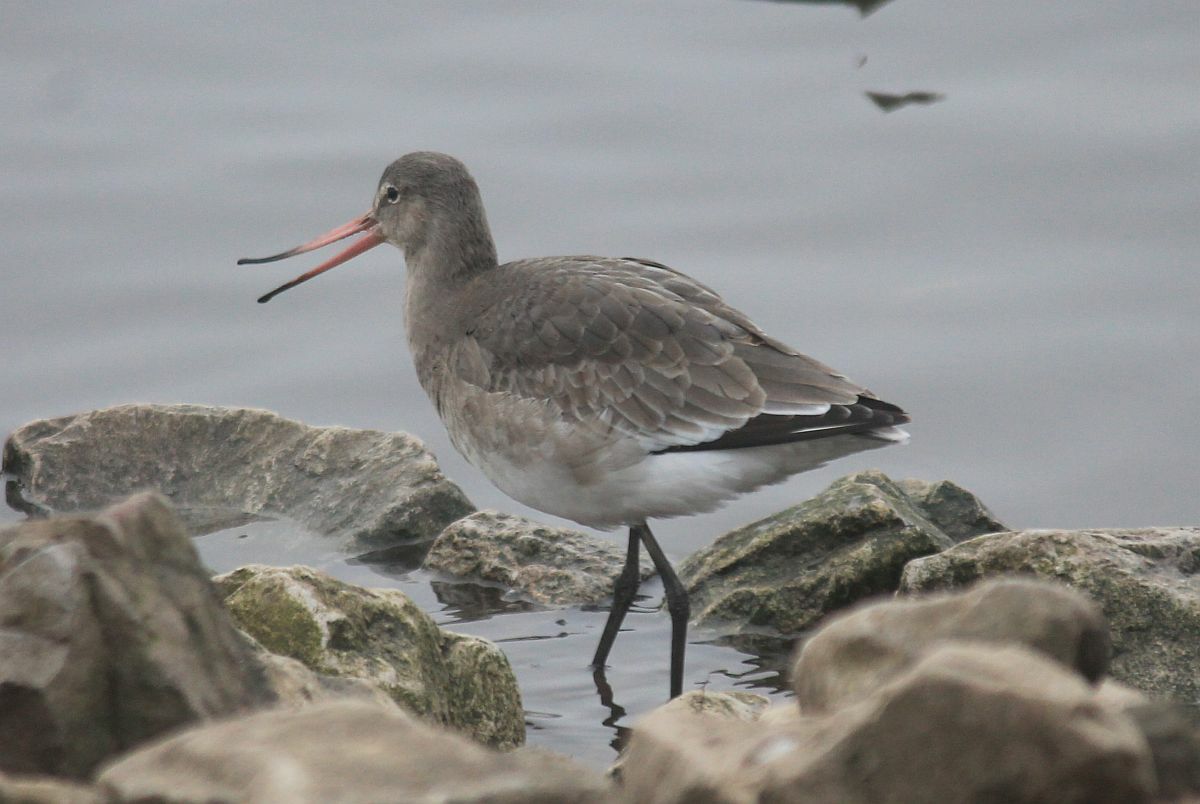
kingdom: Animalia
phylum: Chordata
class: Aves
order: Charadriiformes
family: Scolopacidae
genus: Limosa
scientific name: Limosa limosa
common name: Black-tailed godwit
